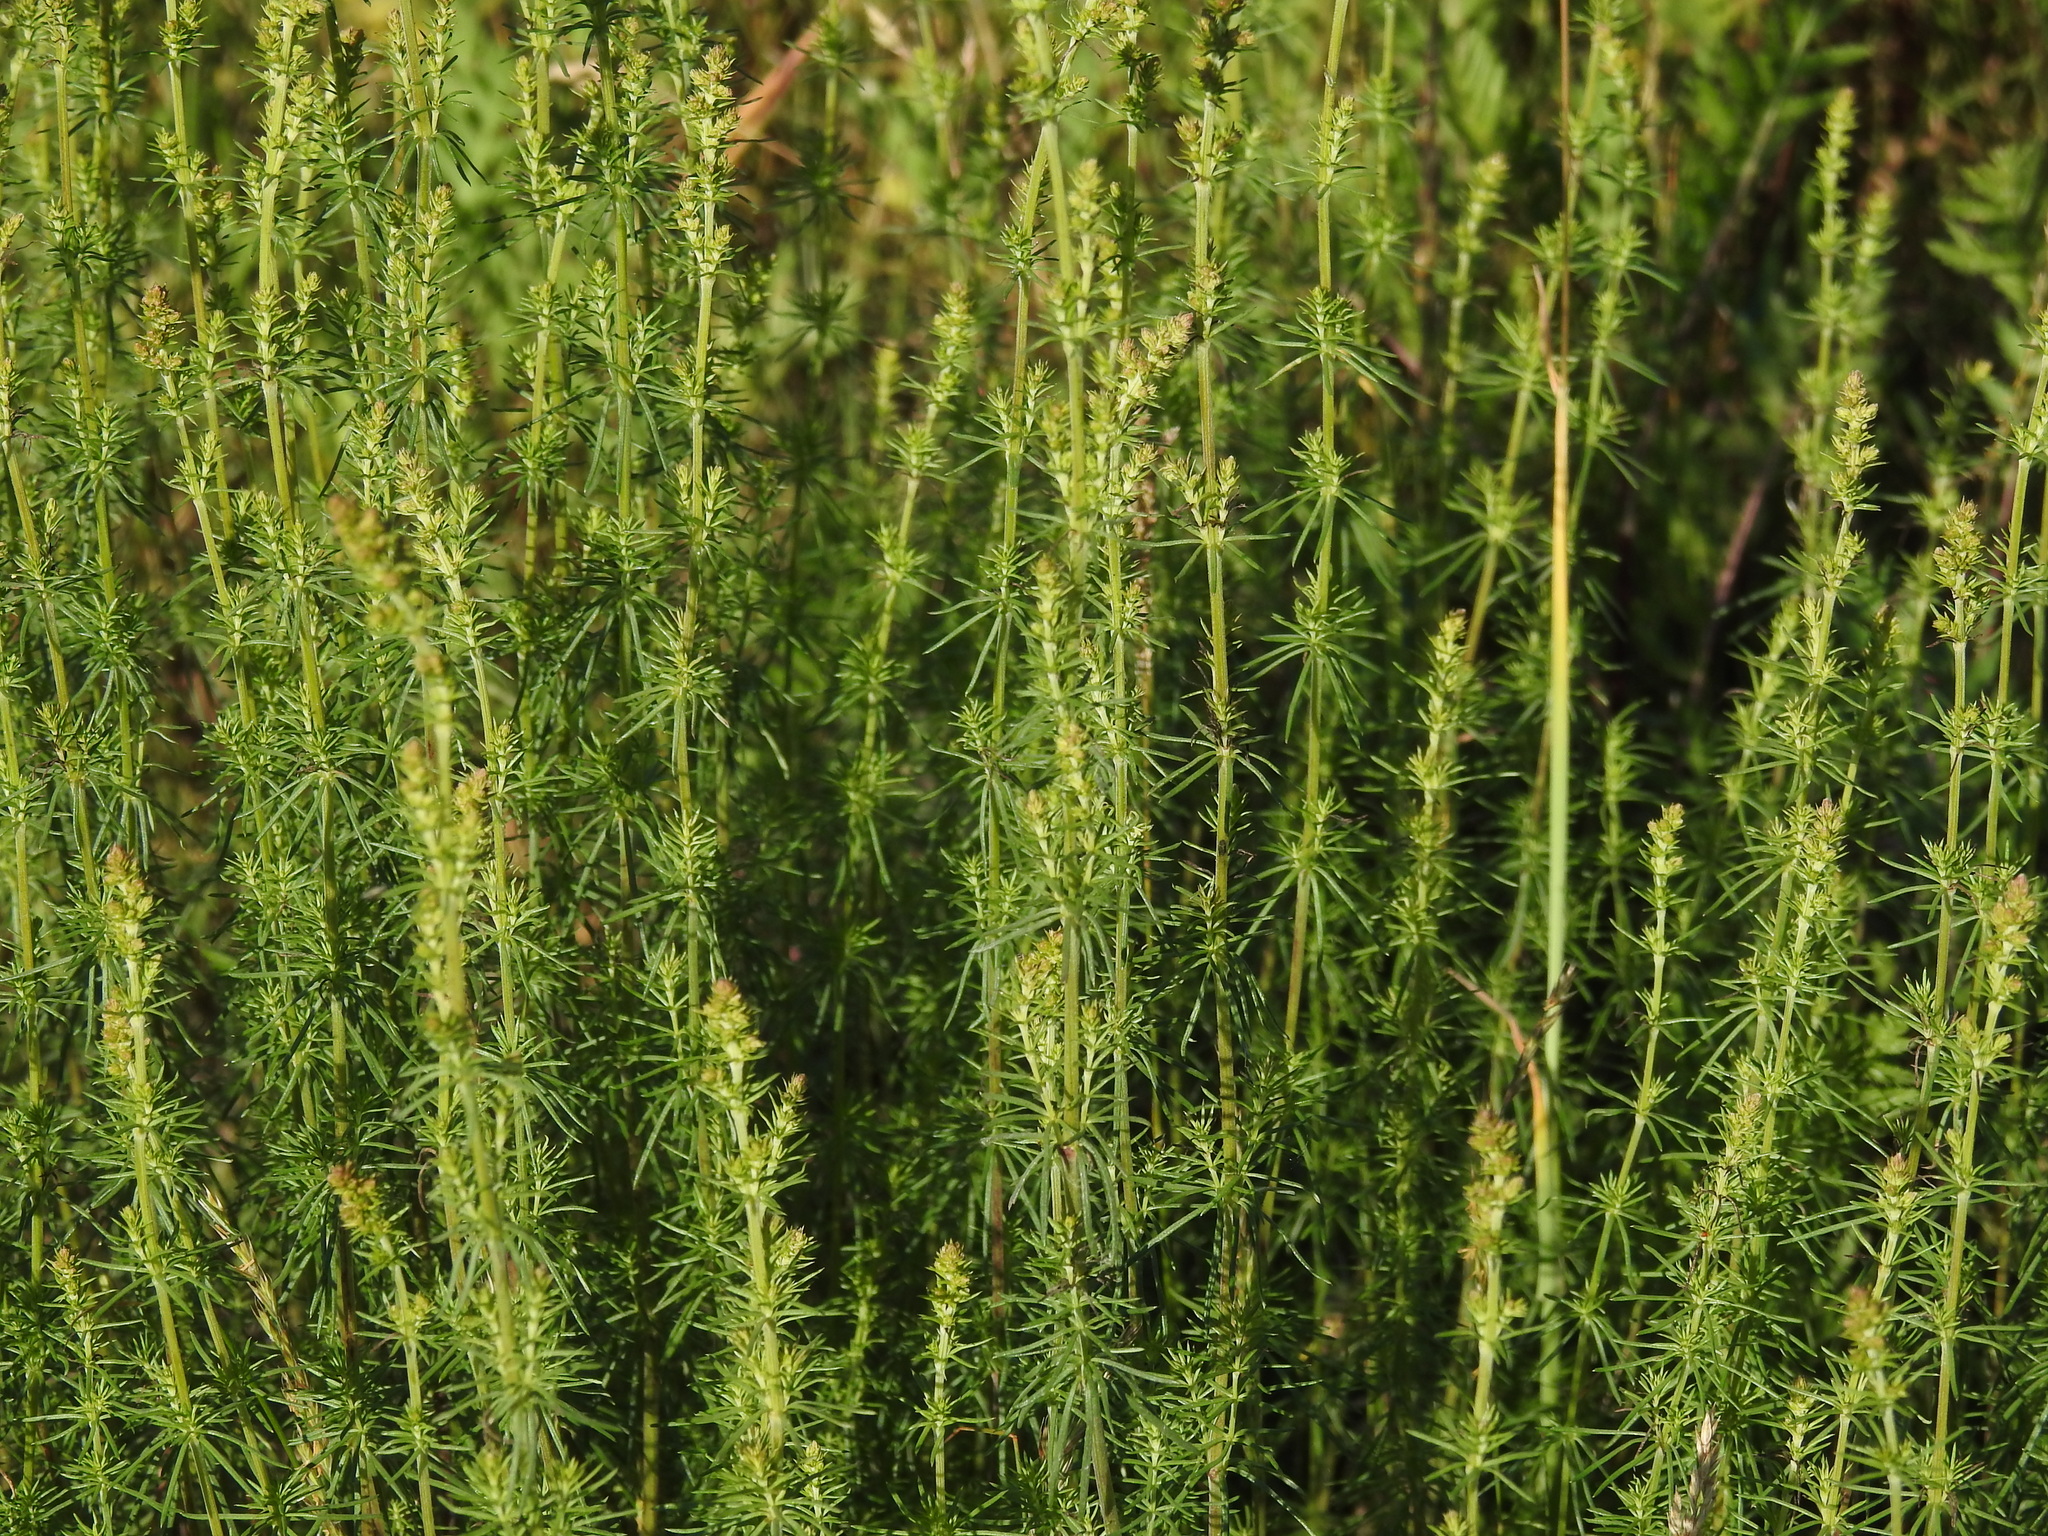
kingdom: Plantae
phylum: Tracheophyta
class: Magnoliopsida
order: Gentianales
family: Rubiaceae
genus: Galium
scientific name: Galium verum
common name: Lady's bedstraw
